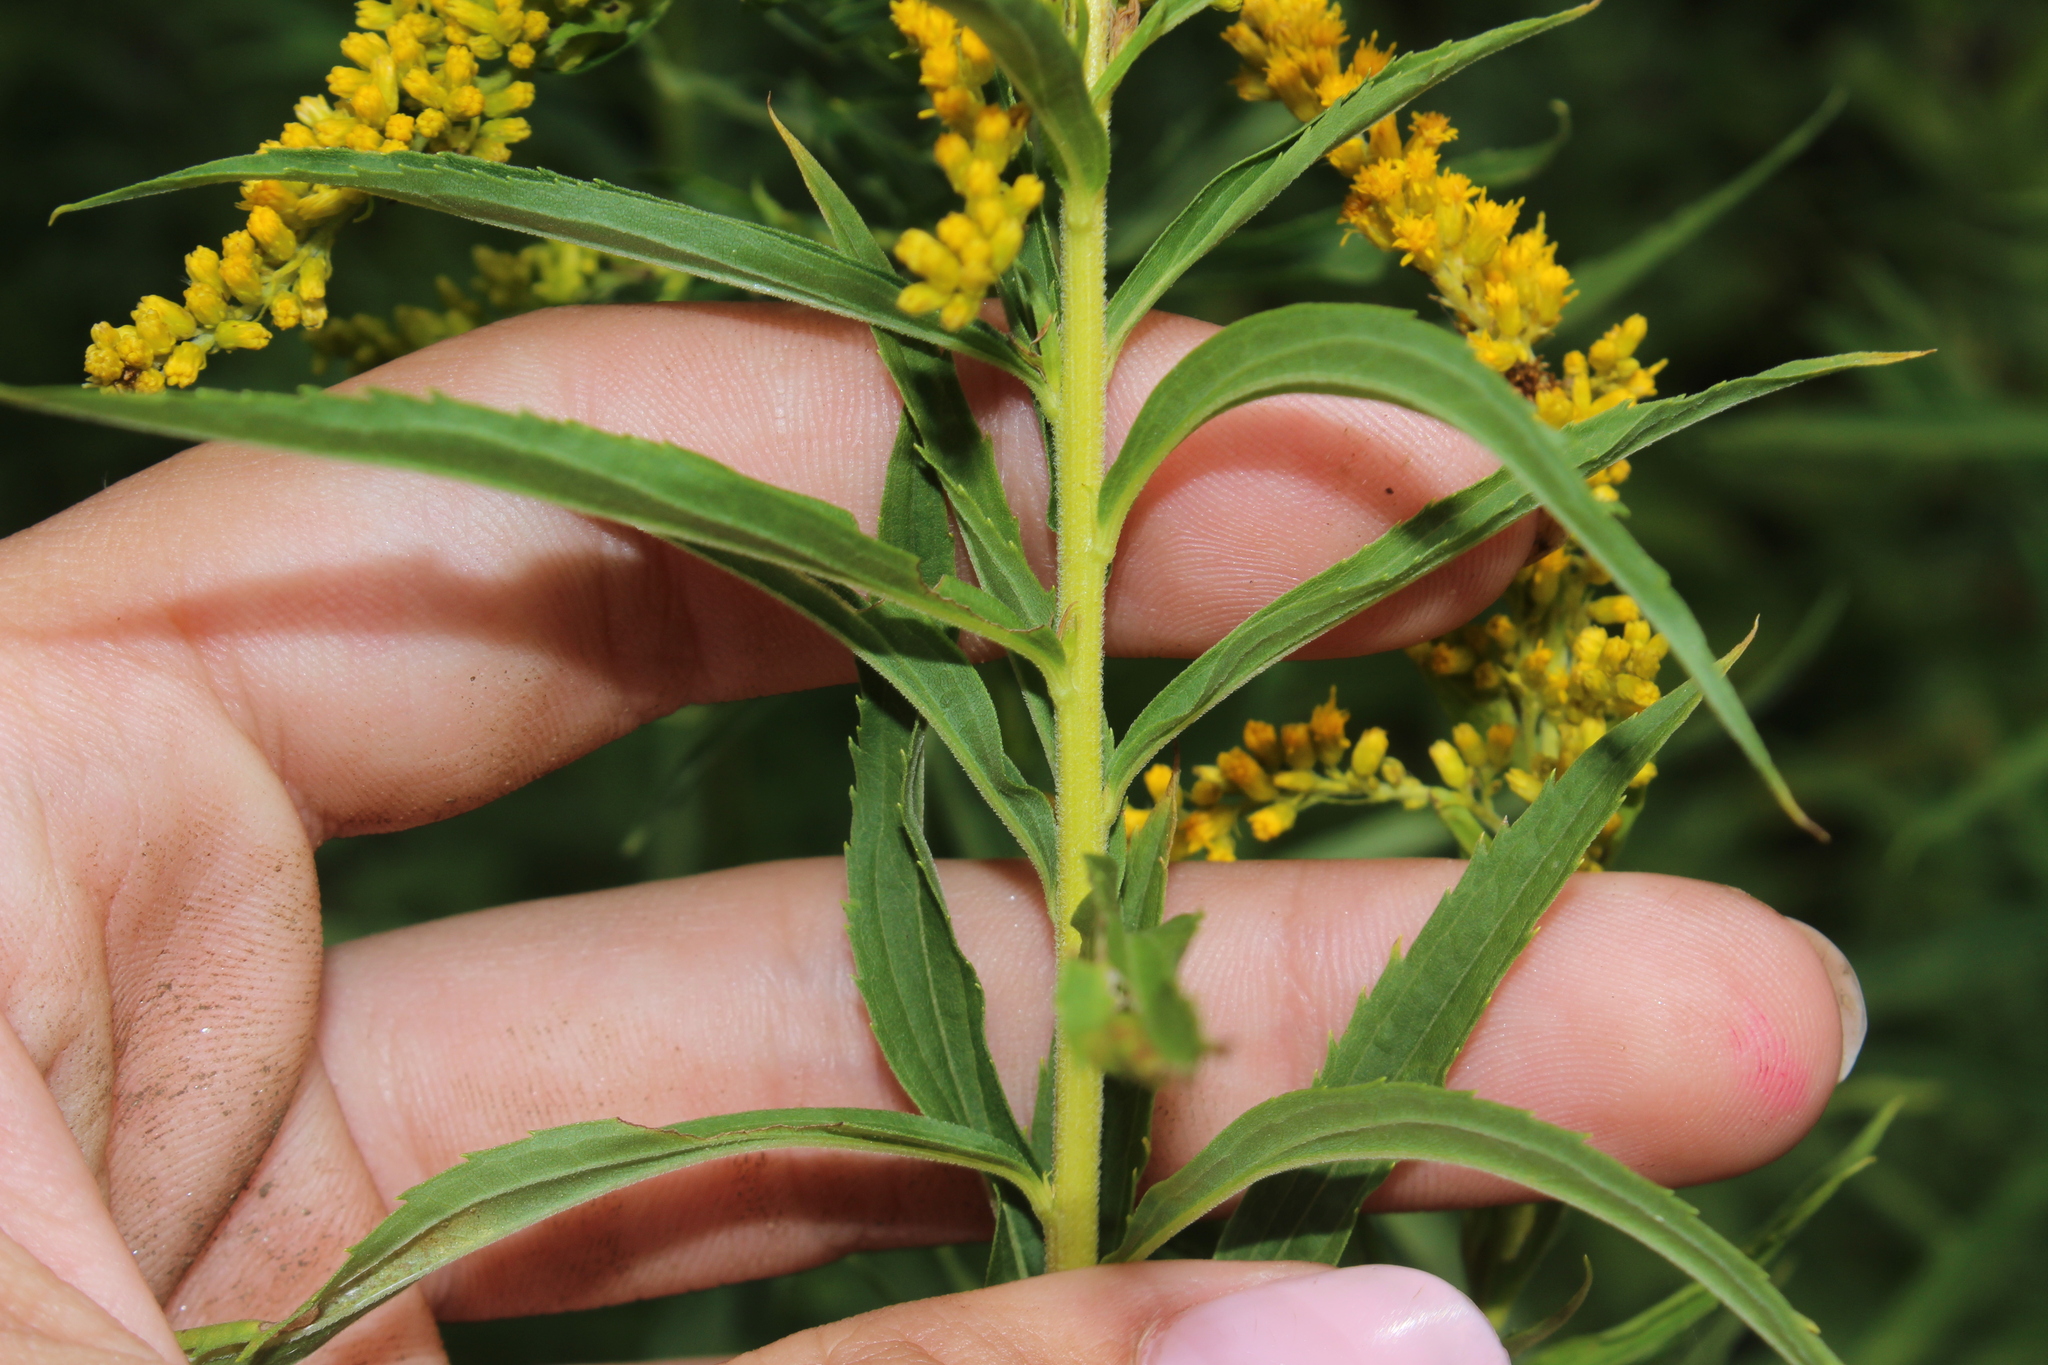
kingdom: Plantae
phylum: Tracheophyta
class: Magnoliopsida
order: Asterales
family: Asteraceae
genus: Solidago
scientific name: Solidago canadensis
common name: Canada goldenrod
